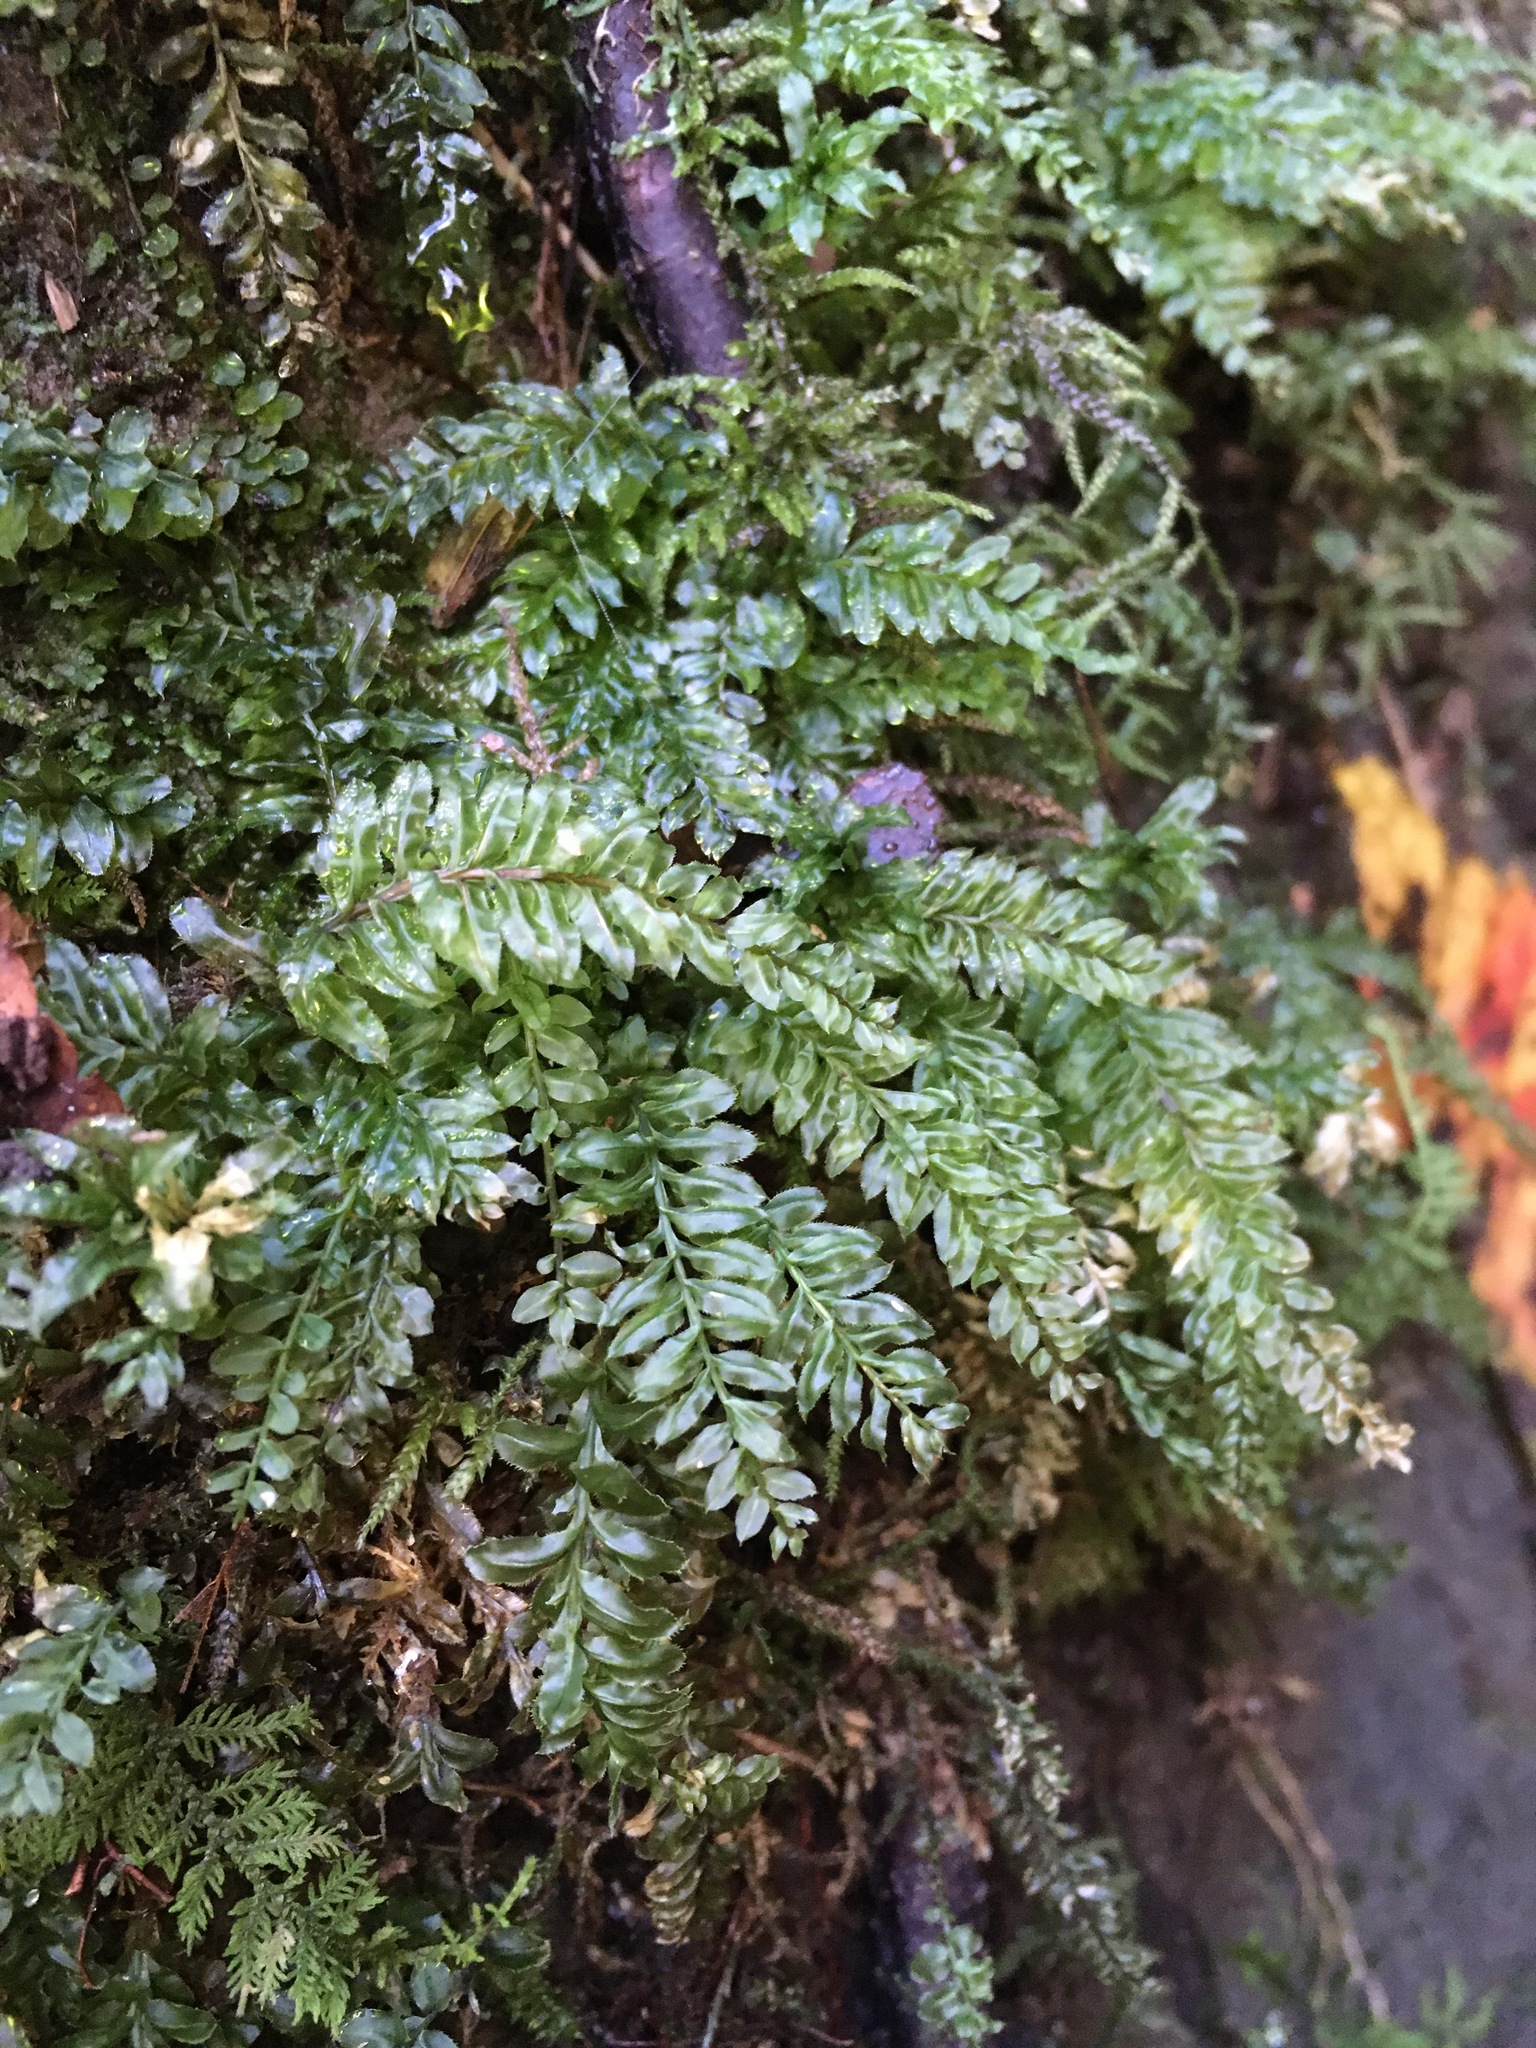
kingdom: Plantae
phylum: Bryophyta
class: Bryopsida
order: Bryales
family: Mniaceae
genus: Plagiomnium
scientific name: Plagiomnium ciliare
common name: Toothed leafy moss
